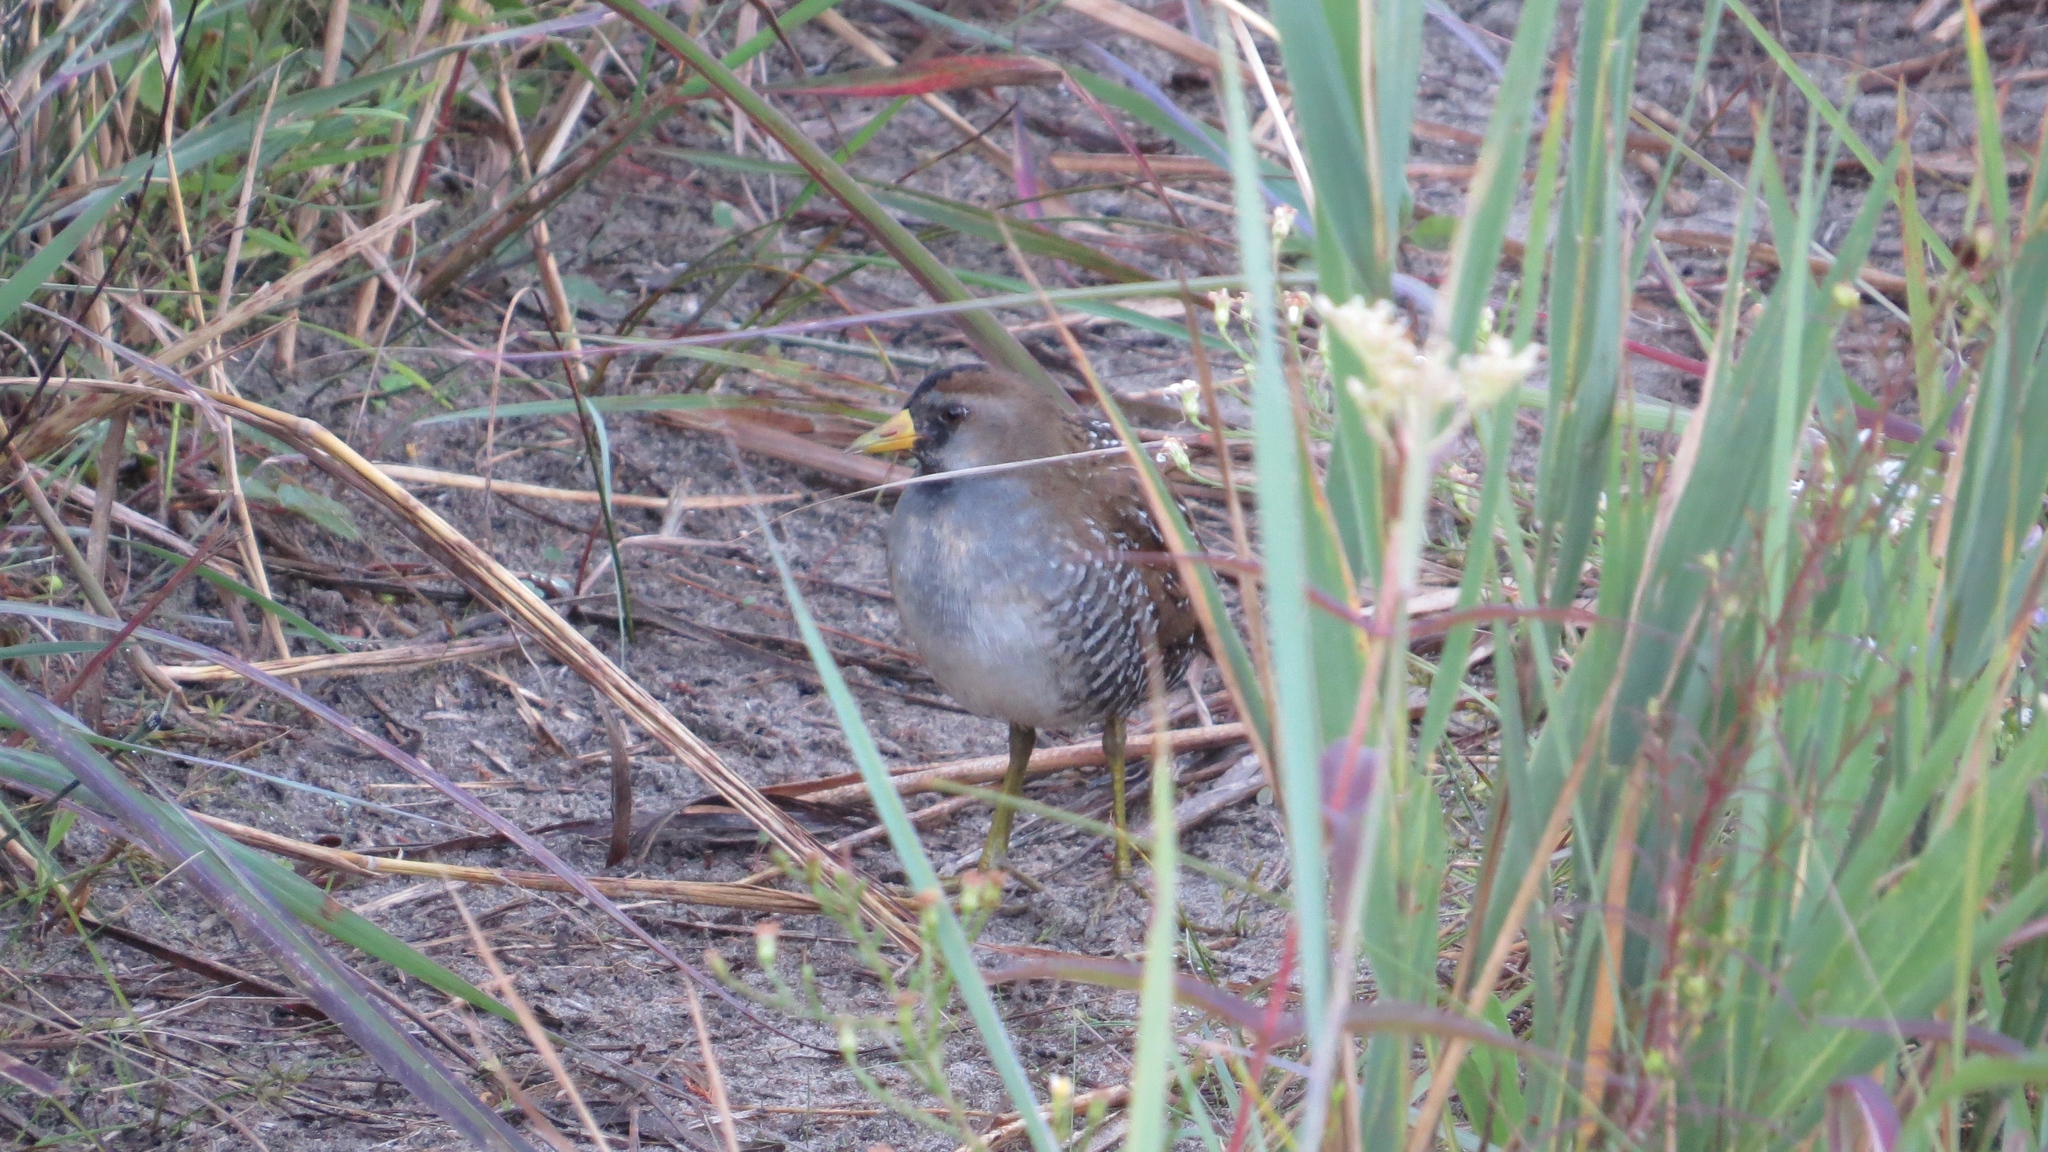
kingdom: Animalia
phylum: Chordata
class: Aves
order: Gruiformes
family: Rallidae
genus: Porzana
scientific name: Porzana carolina
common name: Sora
